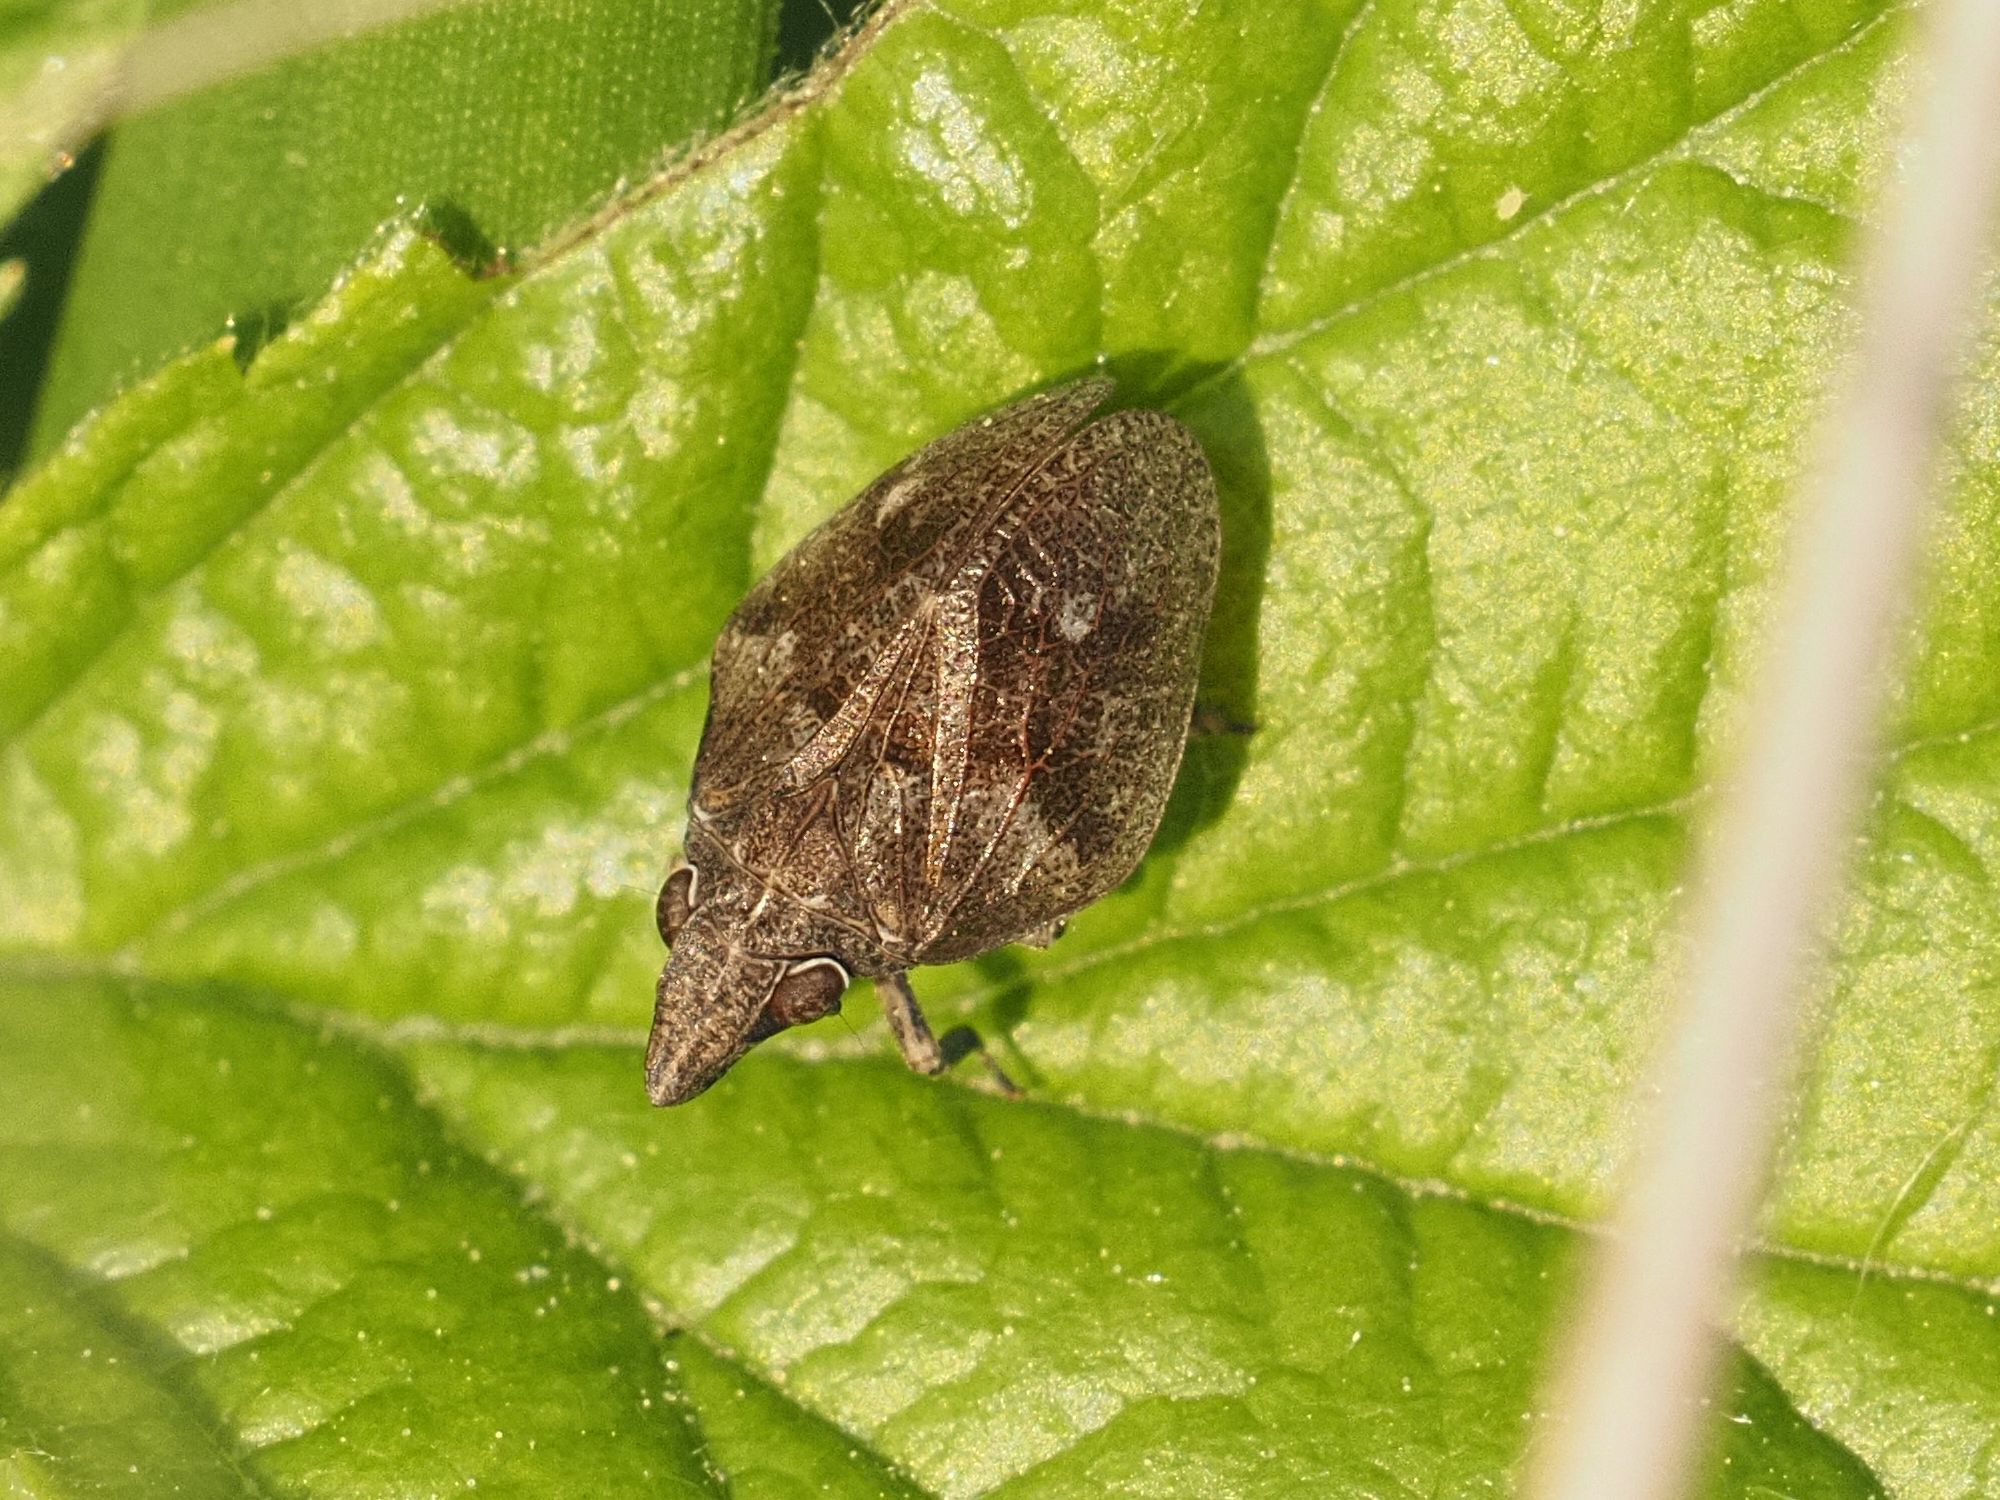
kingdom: Animalia
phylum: Arthropoda
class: Insecta
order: Hemiptera
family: Issidae
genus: Mycterodus
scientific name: Mycterodus cuniceps
